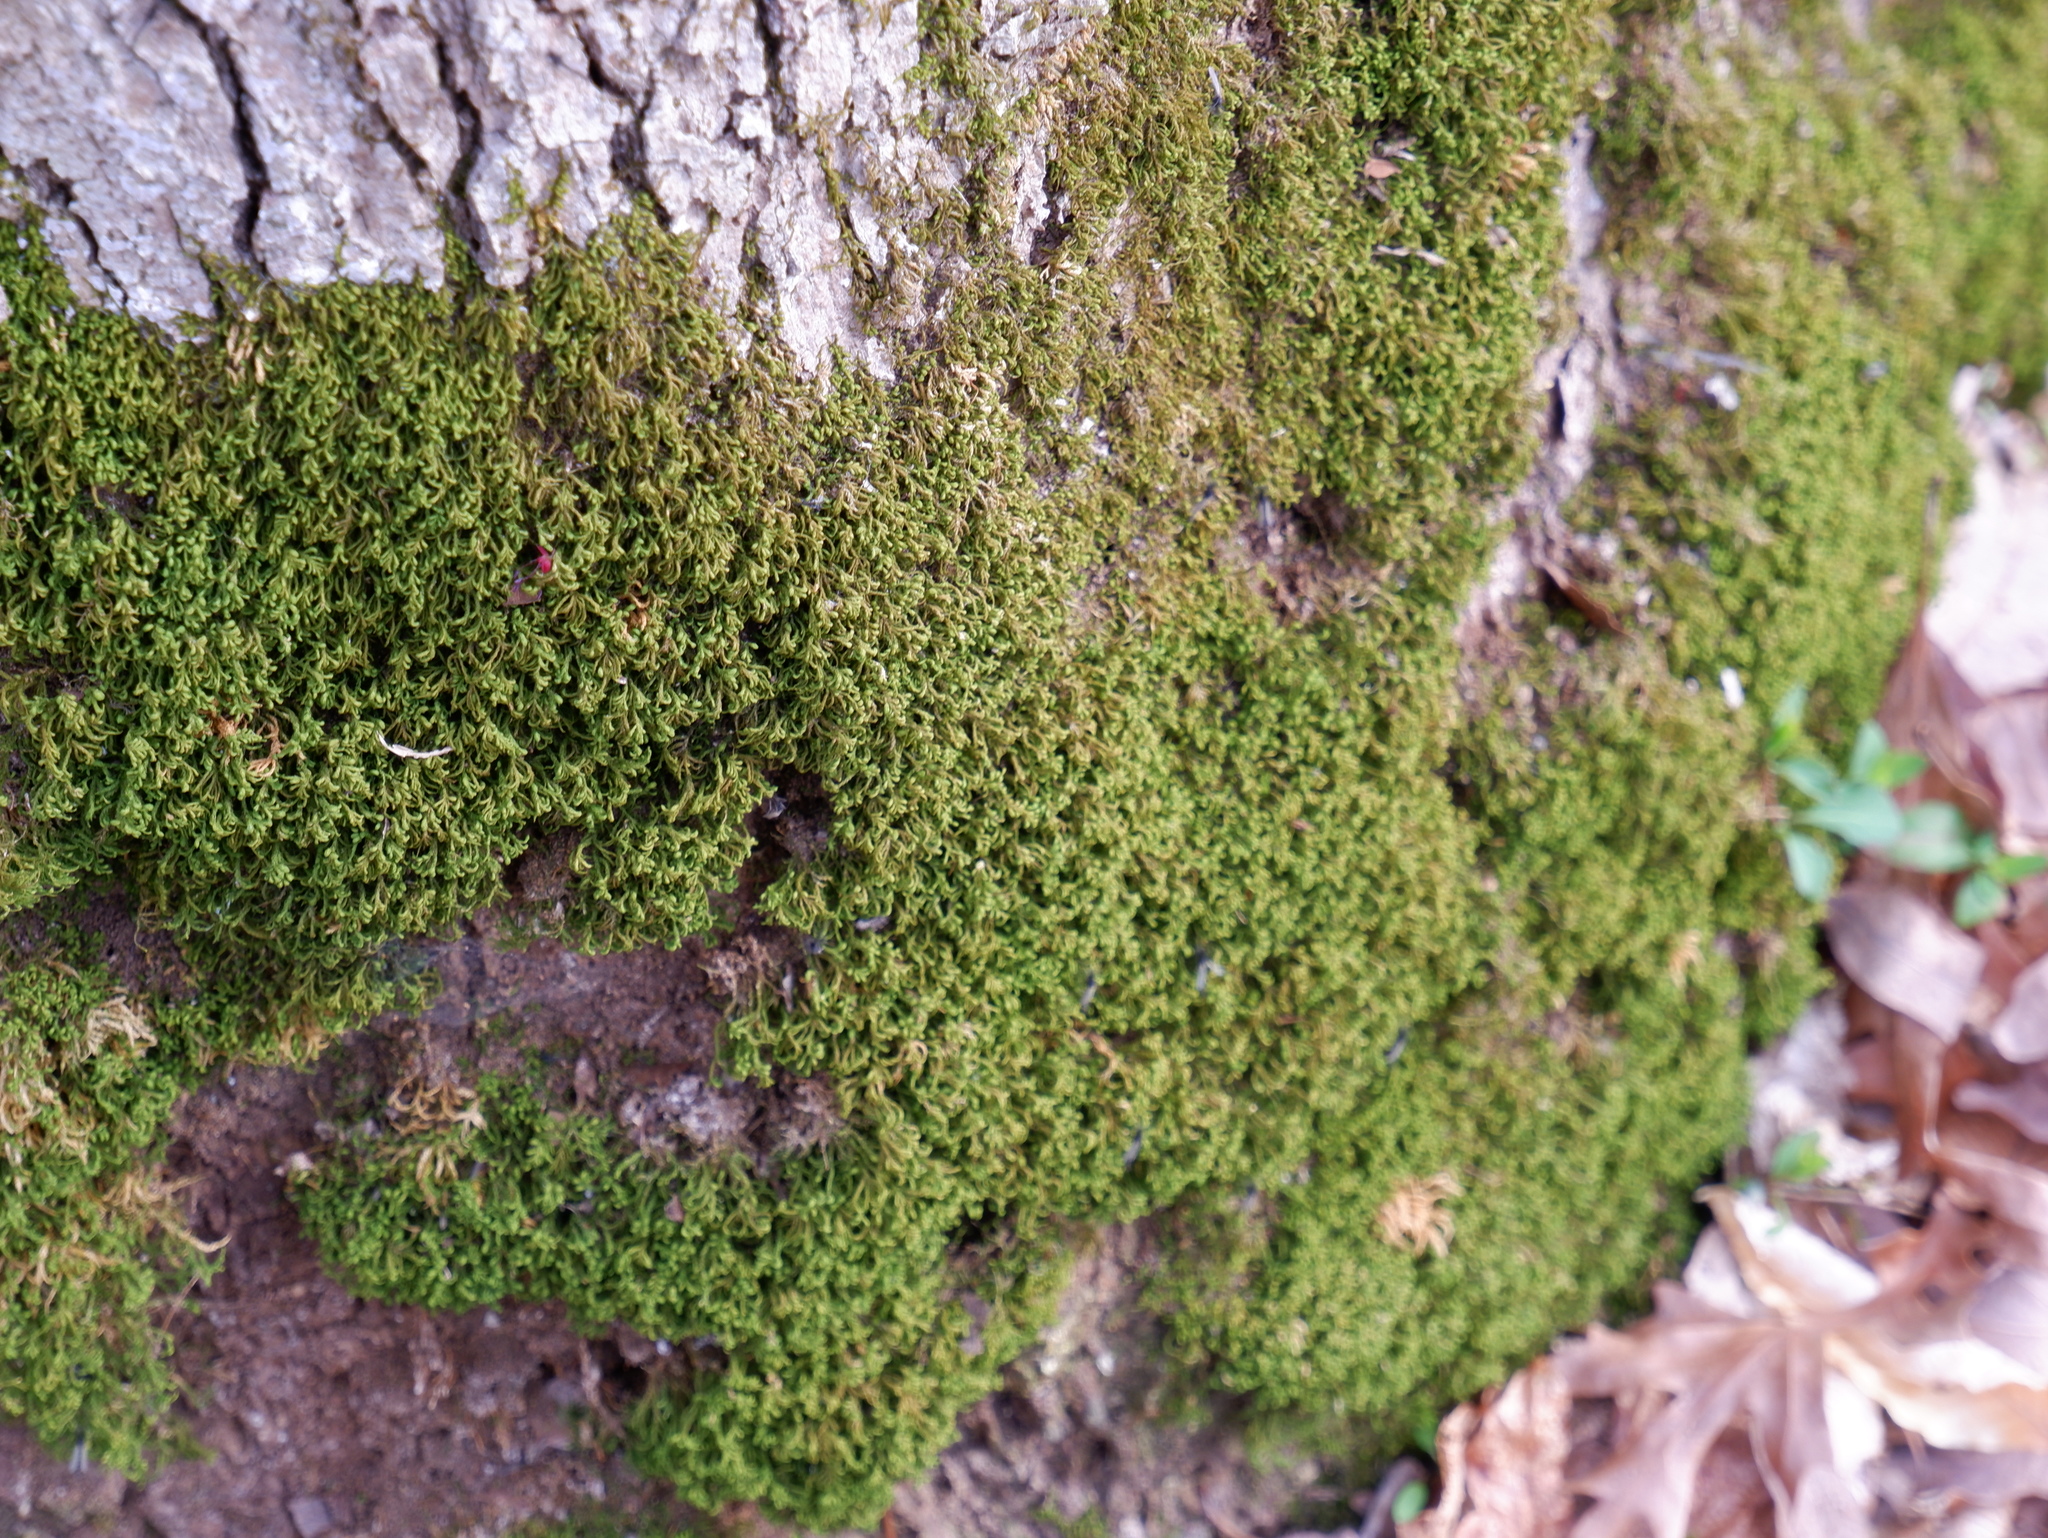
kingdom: Plantae
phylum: Bryophyta
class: Bryopsida
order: Hypnales
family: Neckeraceae
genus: Pseudanomodon
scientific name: Pseudanomodon attenuatus
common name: Tree-skirt moss
